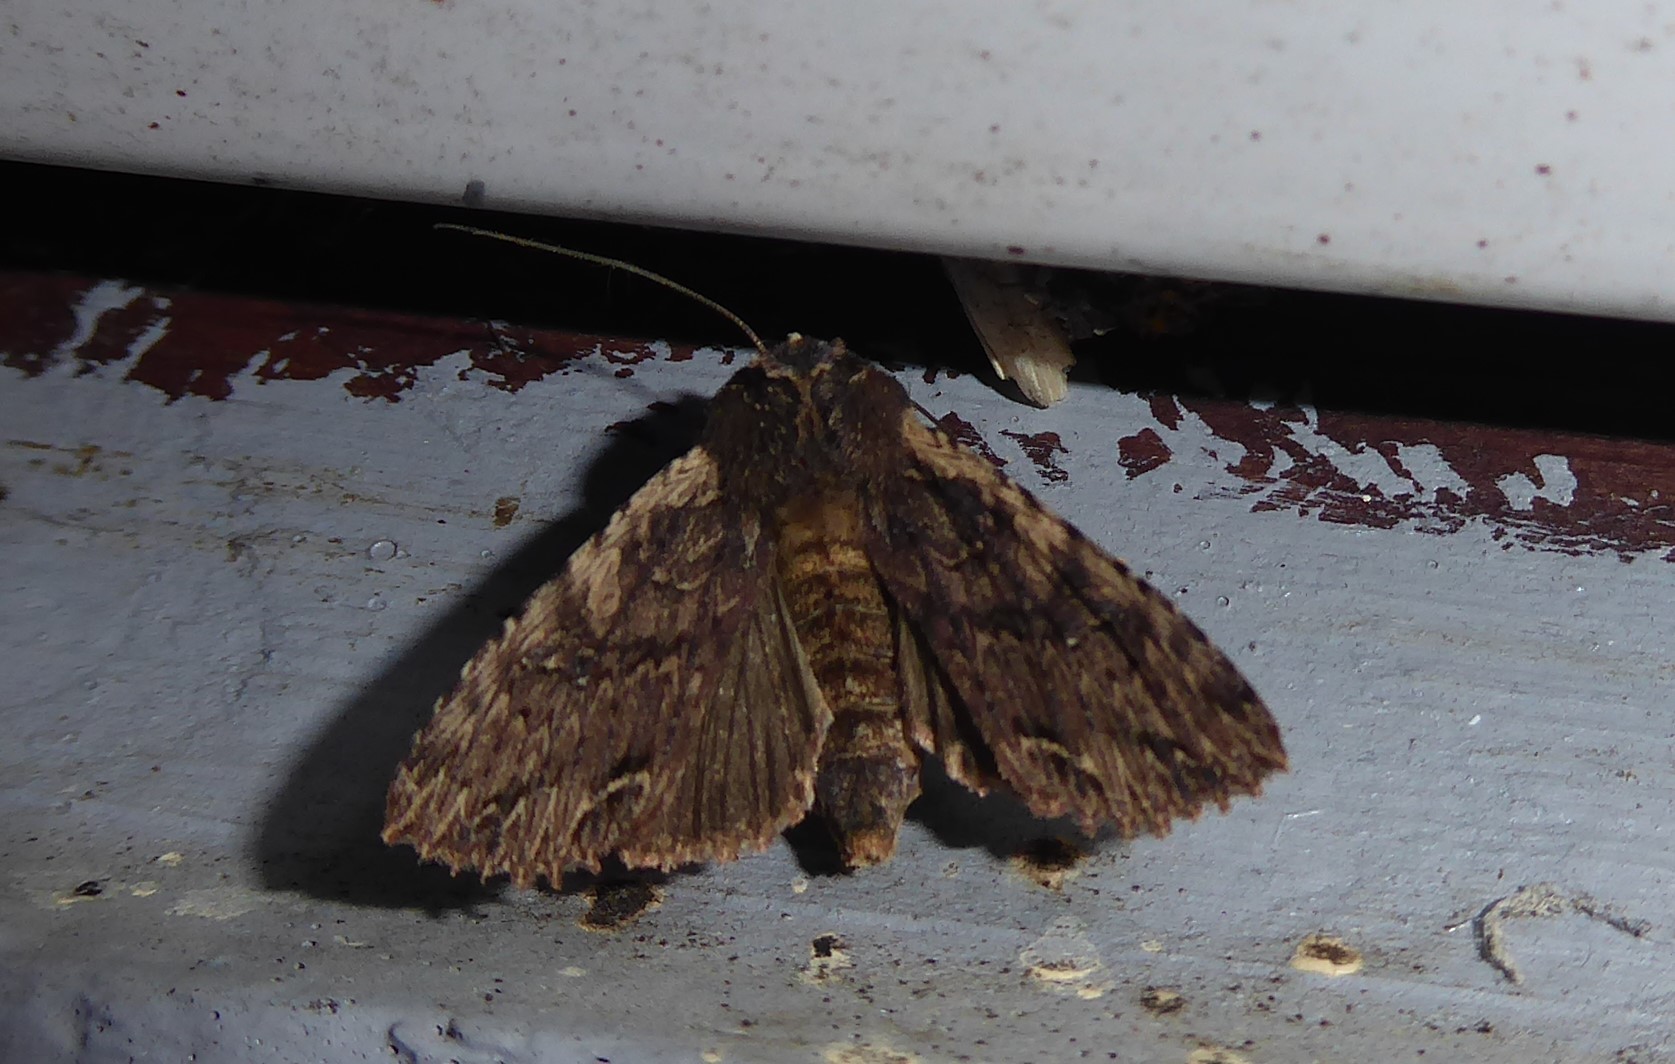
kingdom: Animalia
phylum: Arthropoda
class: Insecta
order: Lepidoptera
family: Noctuidae
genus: Meterana
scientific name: Meterana alcyone
